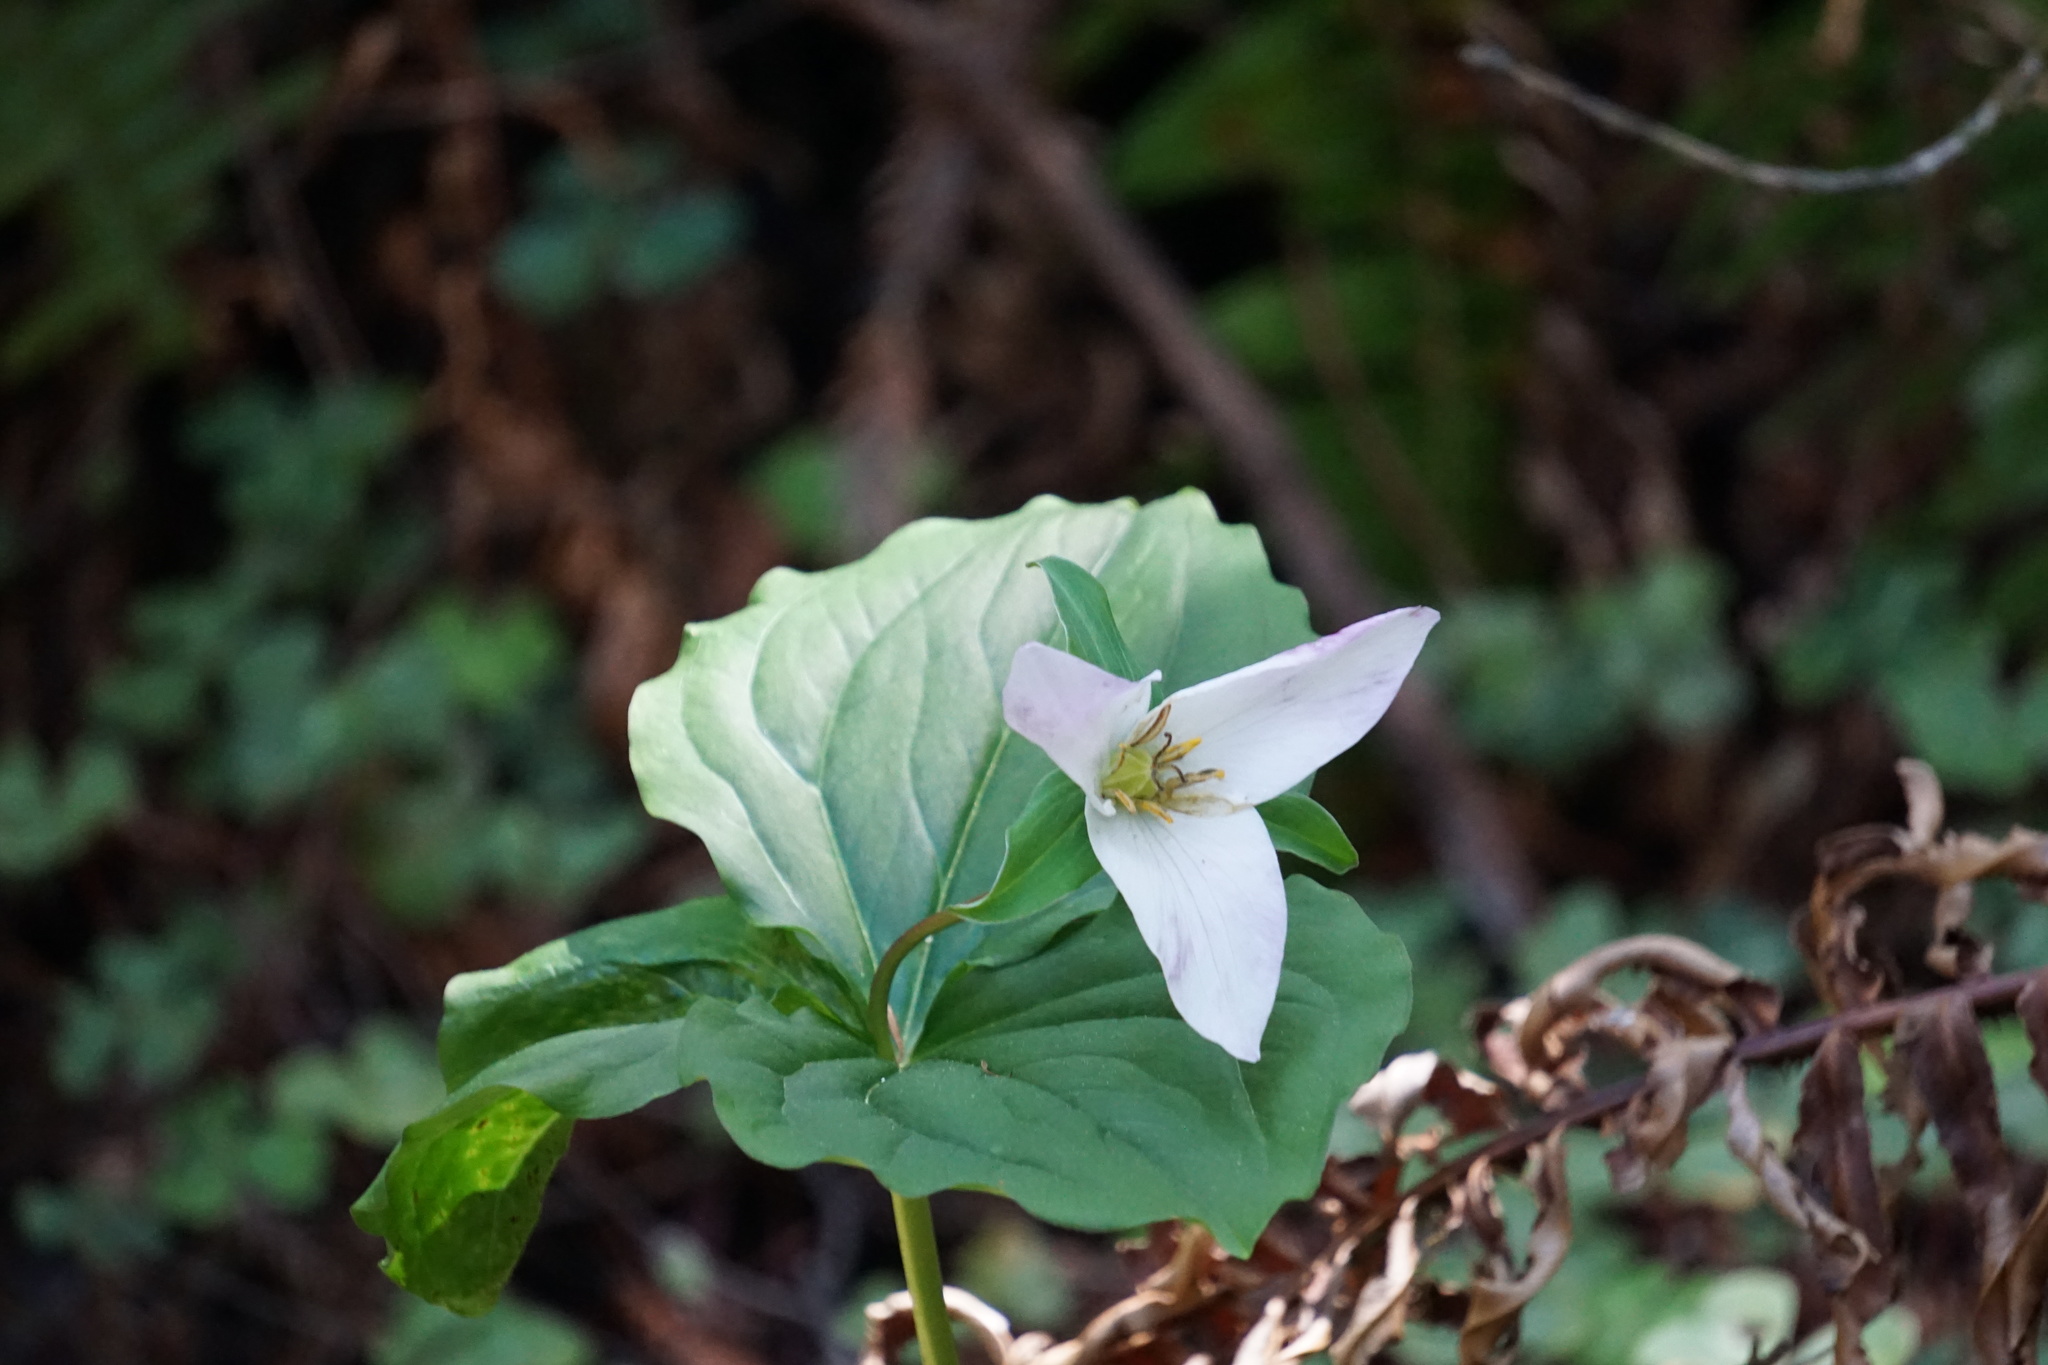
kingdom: Plantae
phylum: Tracheophyta
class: Liliopsida
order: Liliales
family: Melanthiaceae
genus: Trillium
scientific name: Trillium ovatum
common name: Pacific trillium
